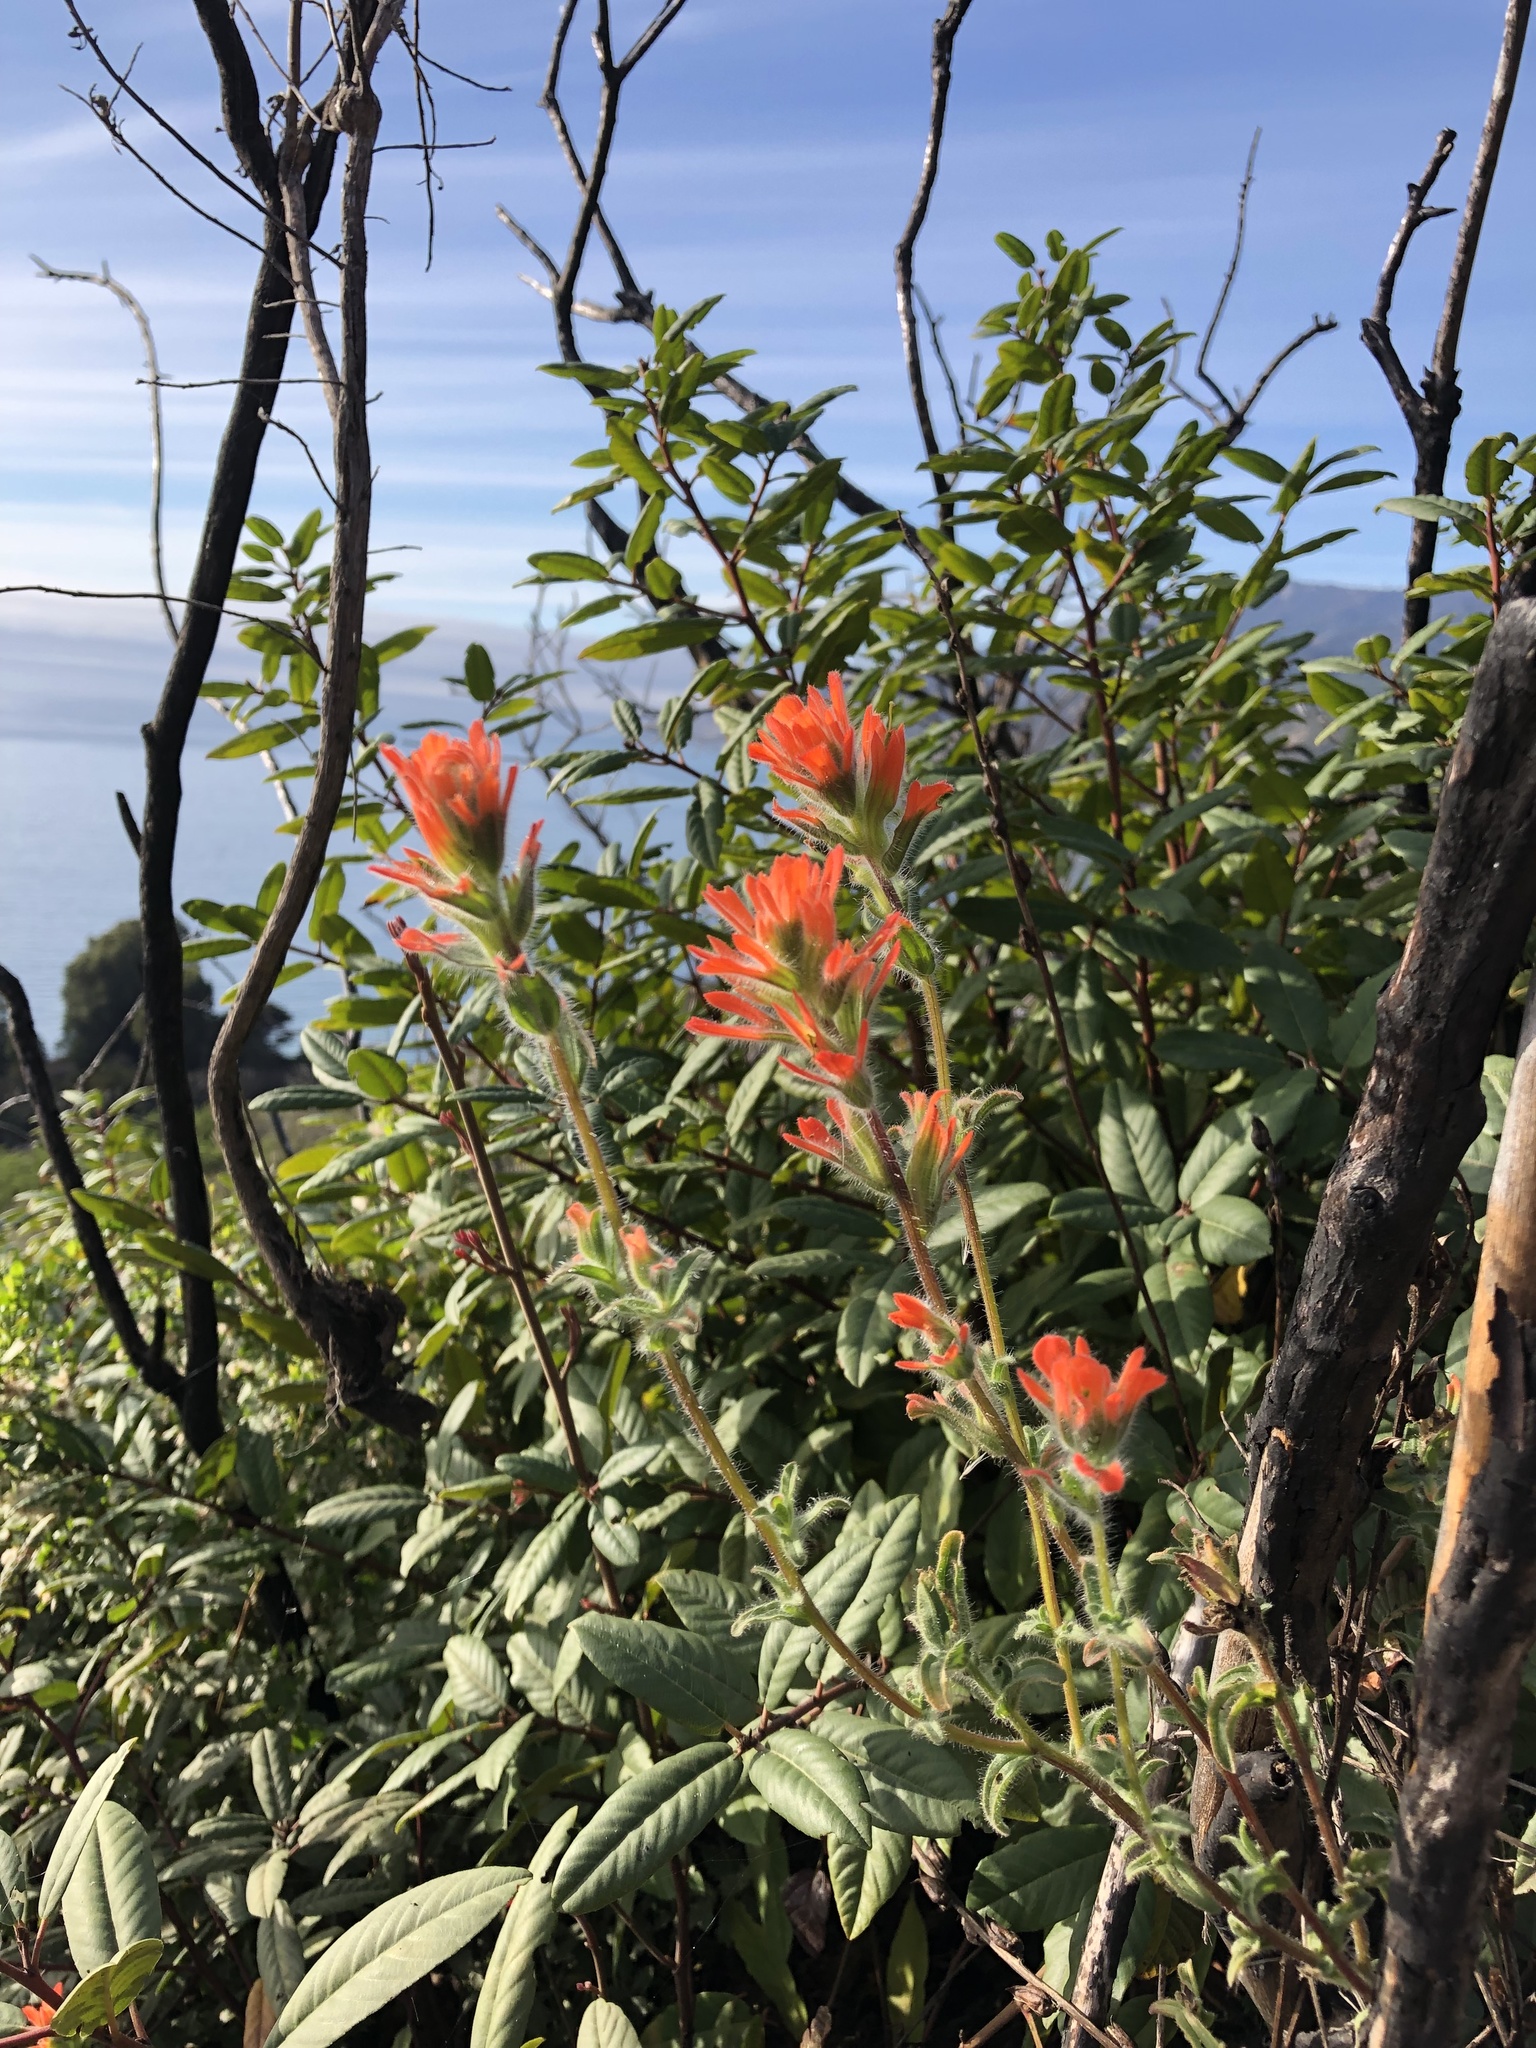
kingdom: Plantae
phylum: Tracheophyta
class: Magnoliopsida
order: Lamiales
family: Orobanchaceae
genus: Castilleja
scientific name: Castilleja affinis
